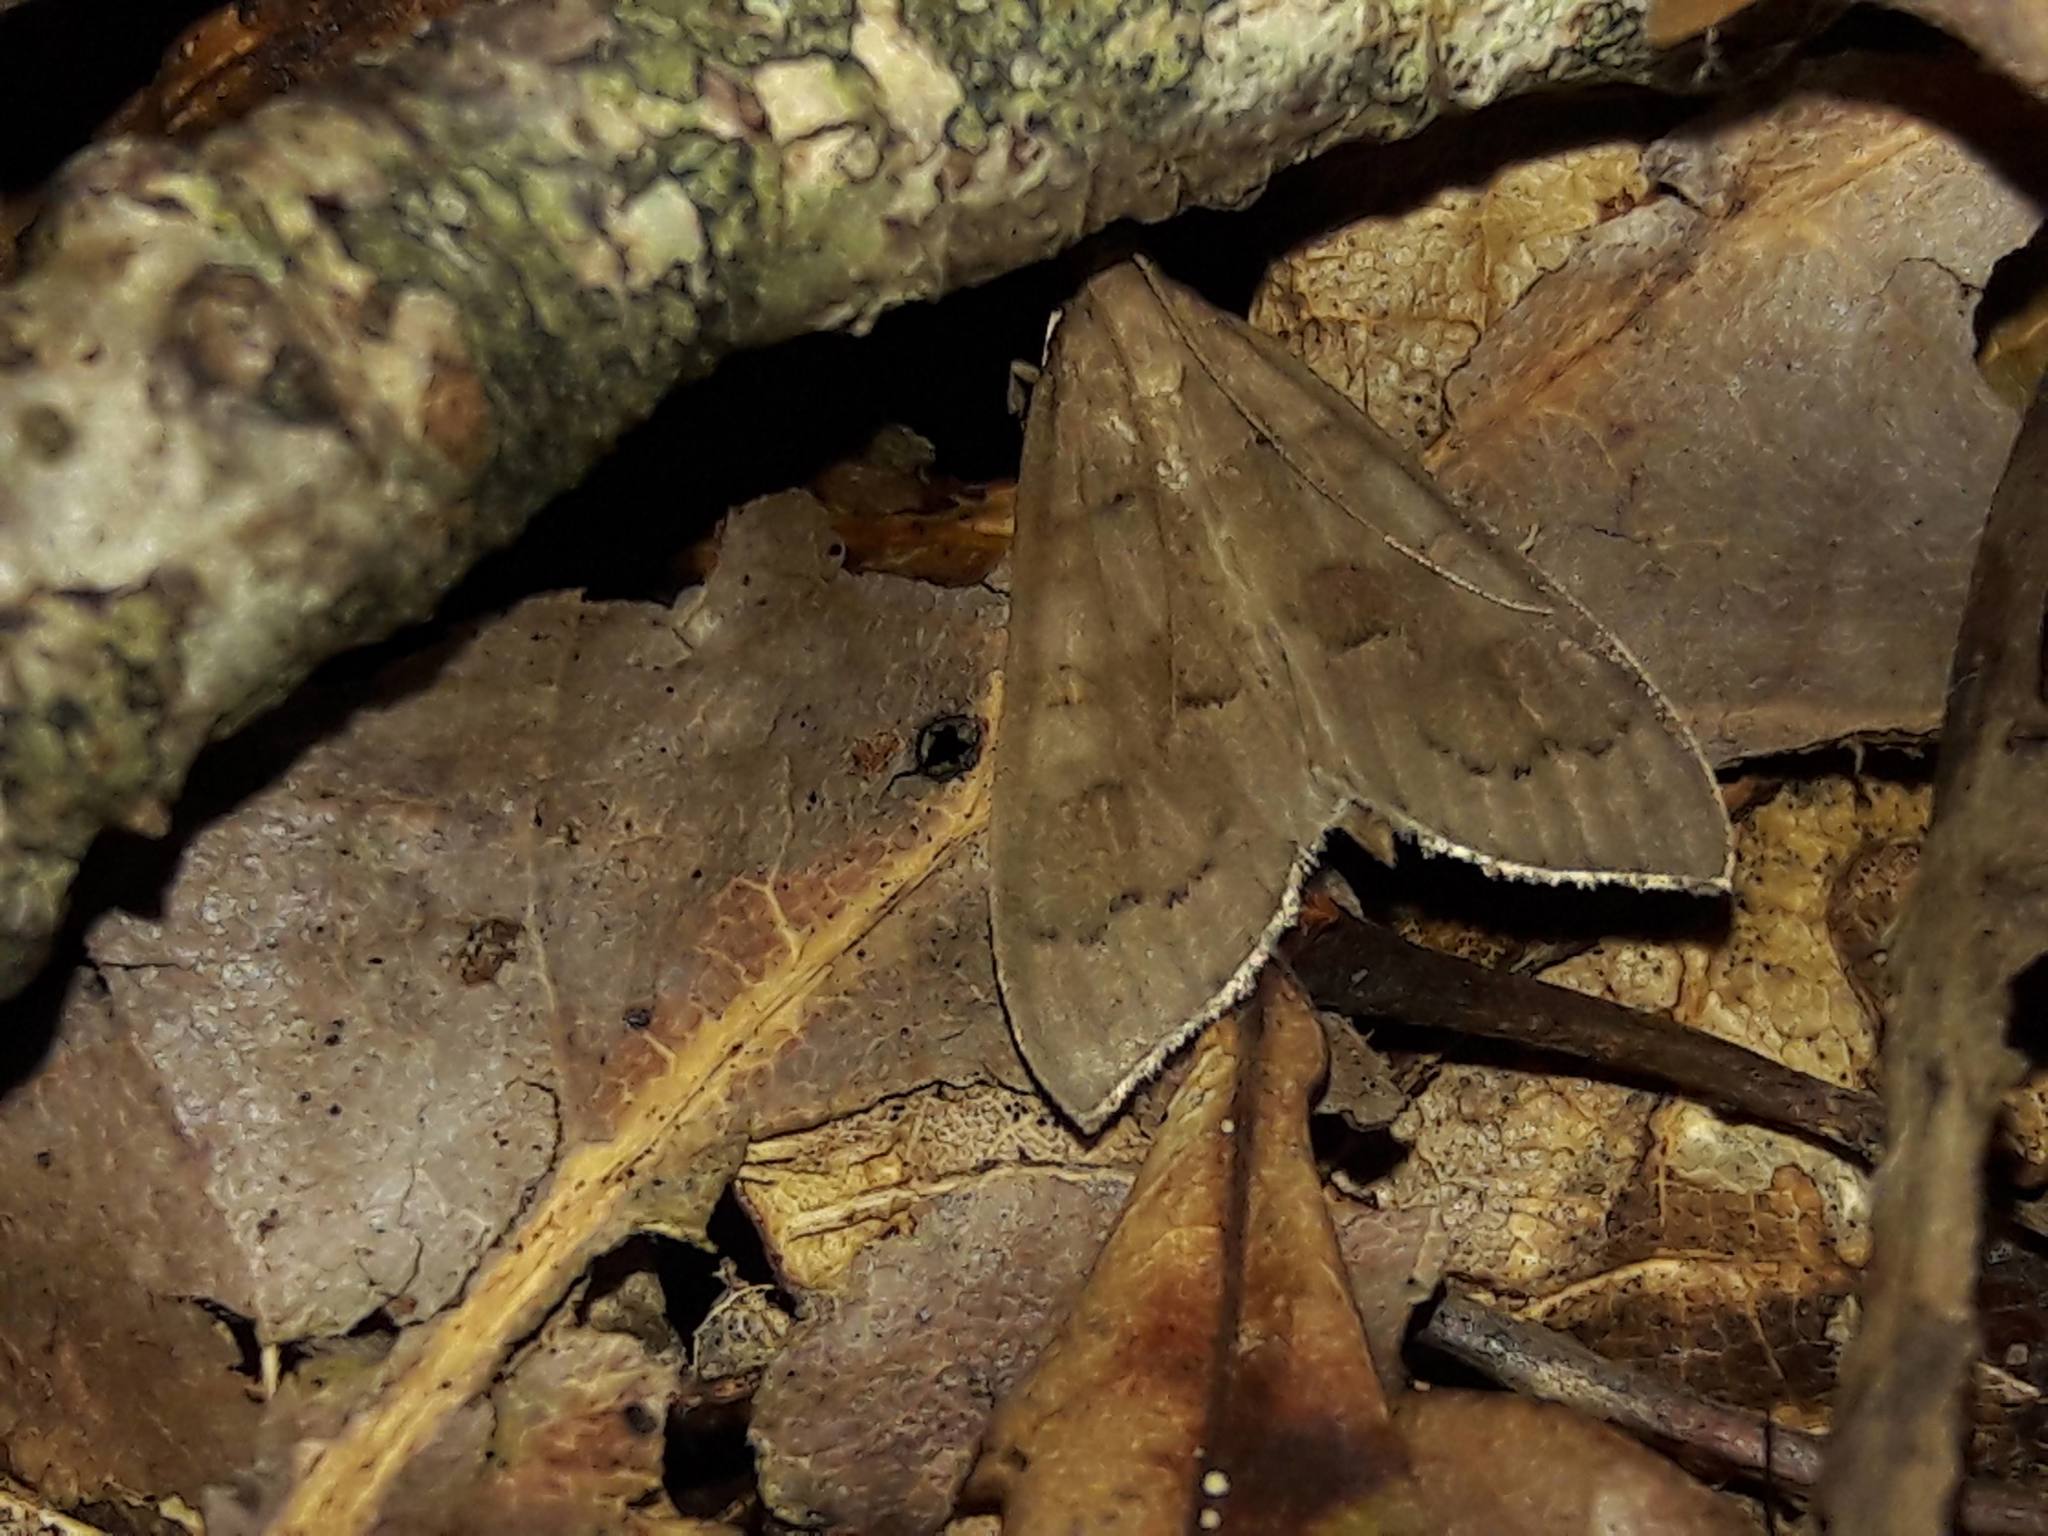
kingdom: Animalia
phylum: Arthropoda
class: Insecta
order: Lepidoptera
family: Crambidae
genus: Mecyna
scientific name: Mecyna asinalis
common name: Coastal pearl
